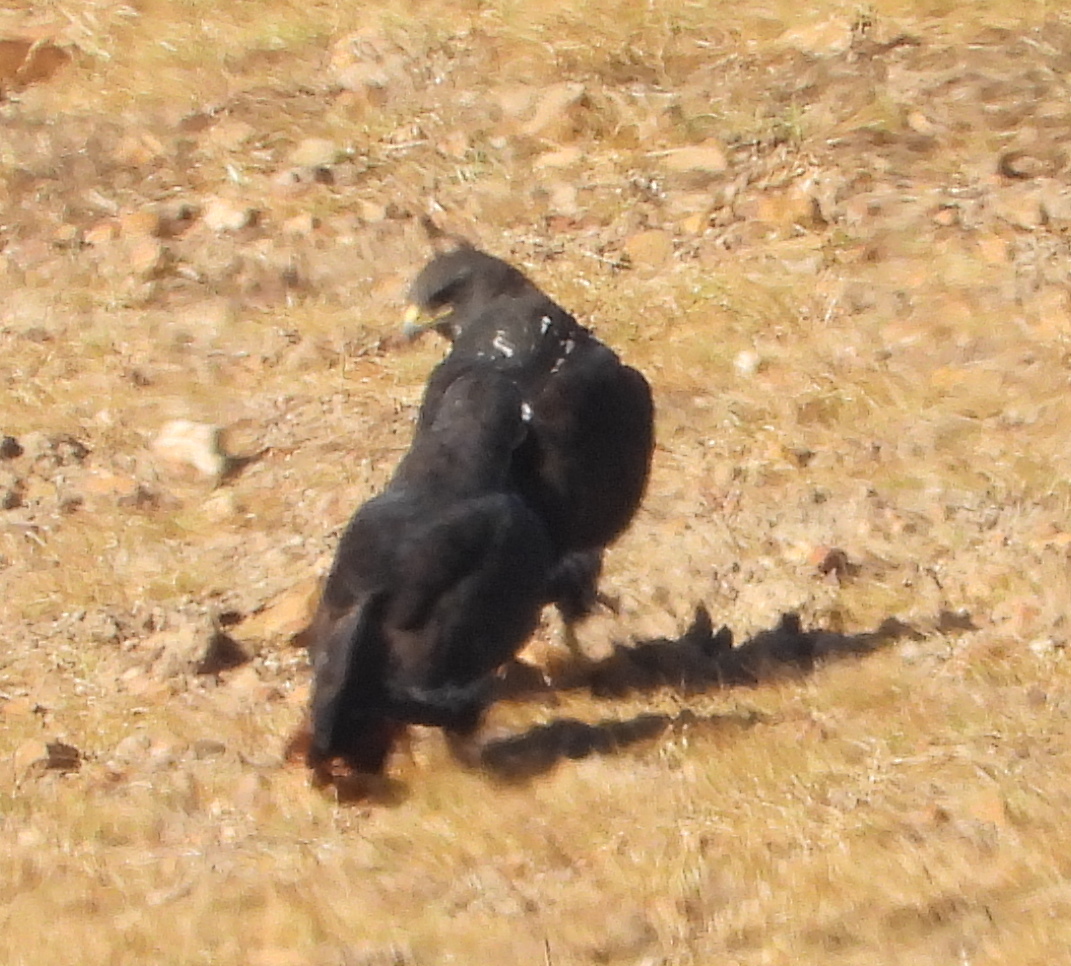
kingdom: Animalia
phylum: Chordata
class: Aves
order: Accipitriformes
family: Accipitridae
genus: Buteo
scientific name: Buteo rufofuscus
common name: Jackal buzzard
